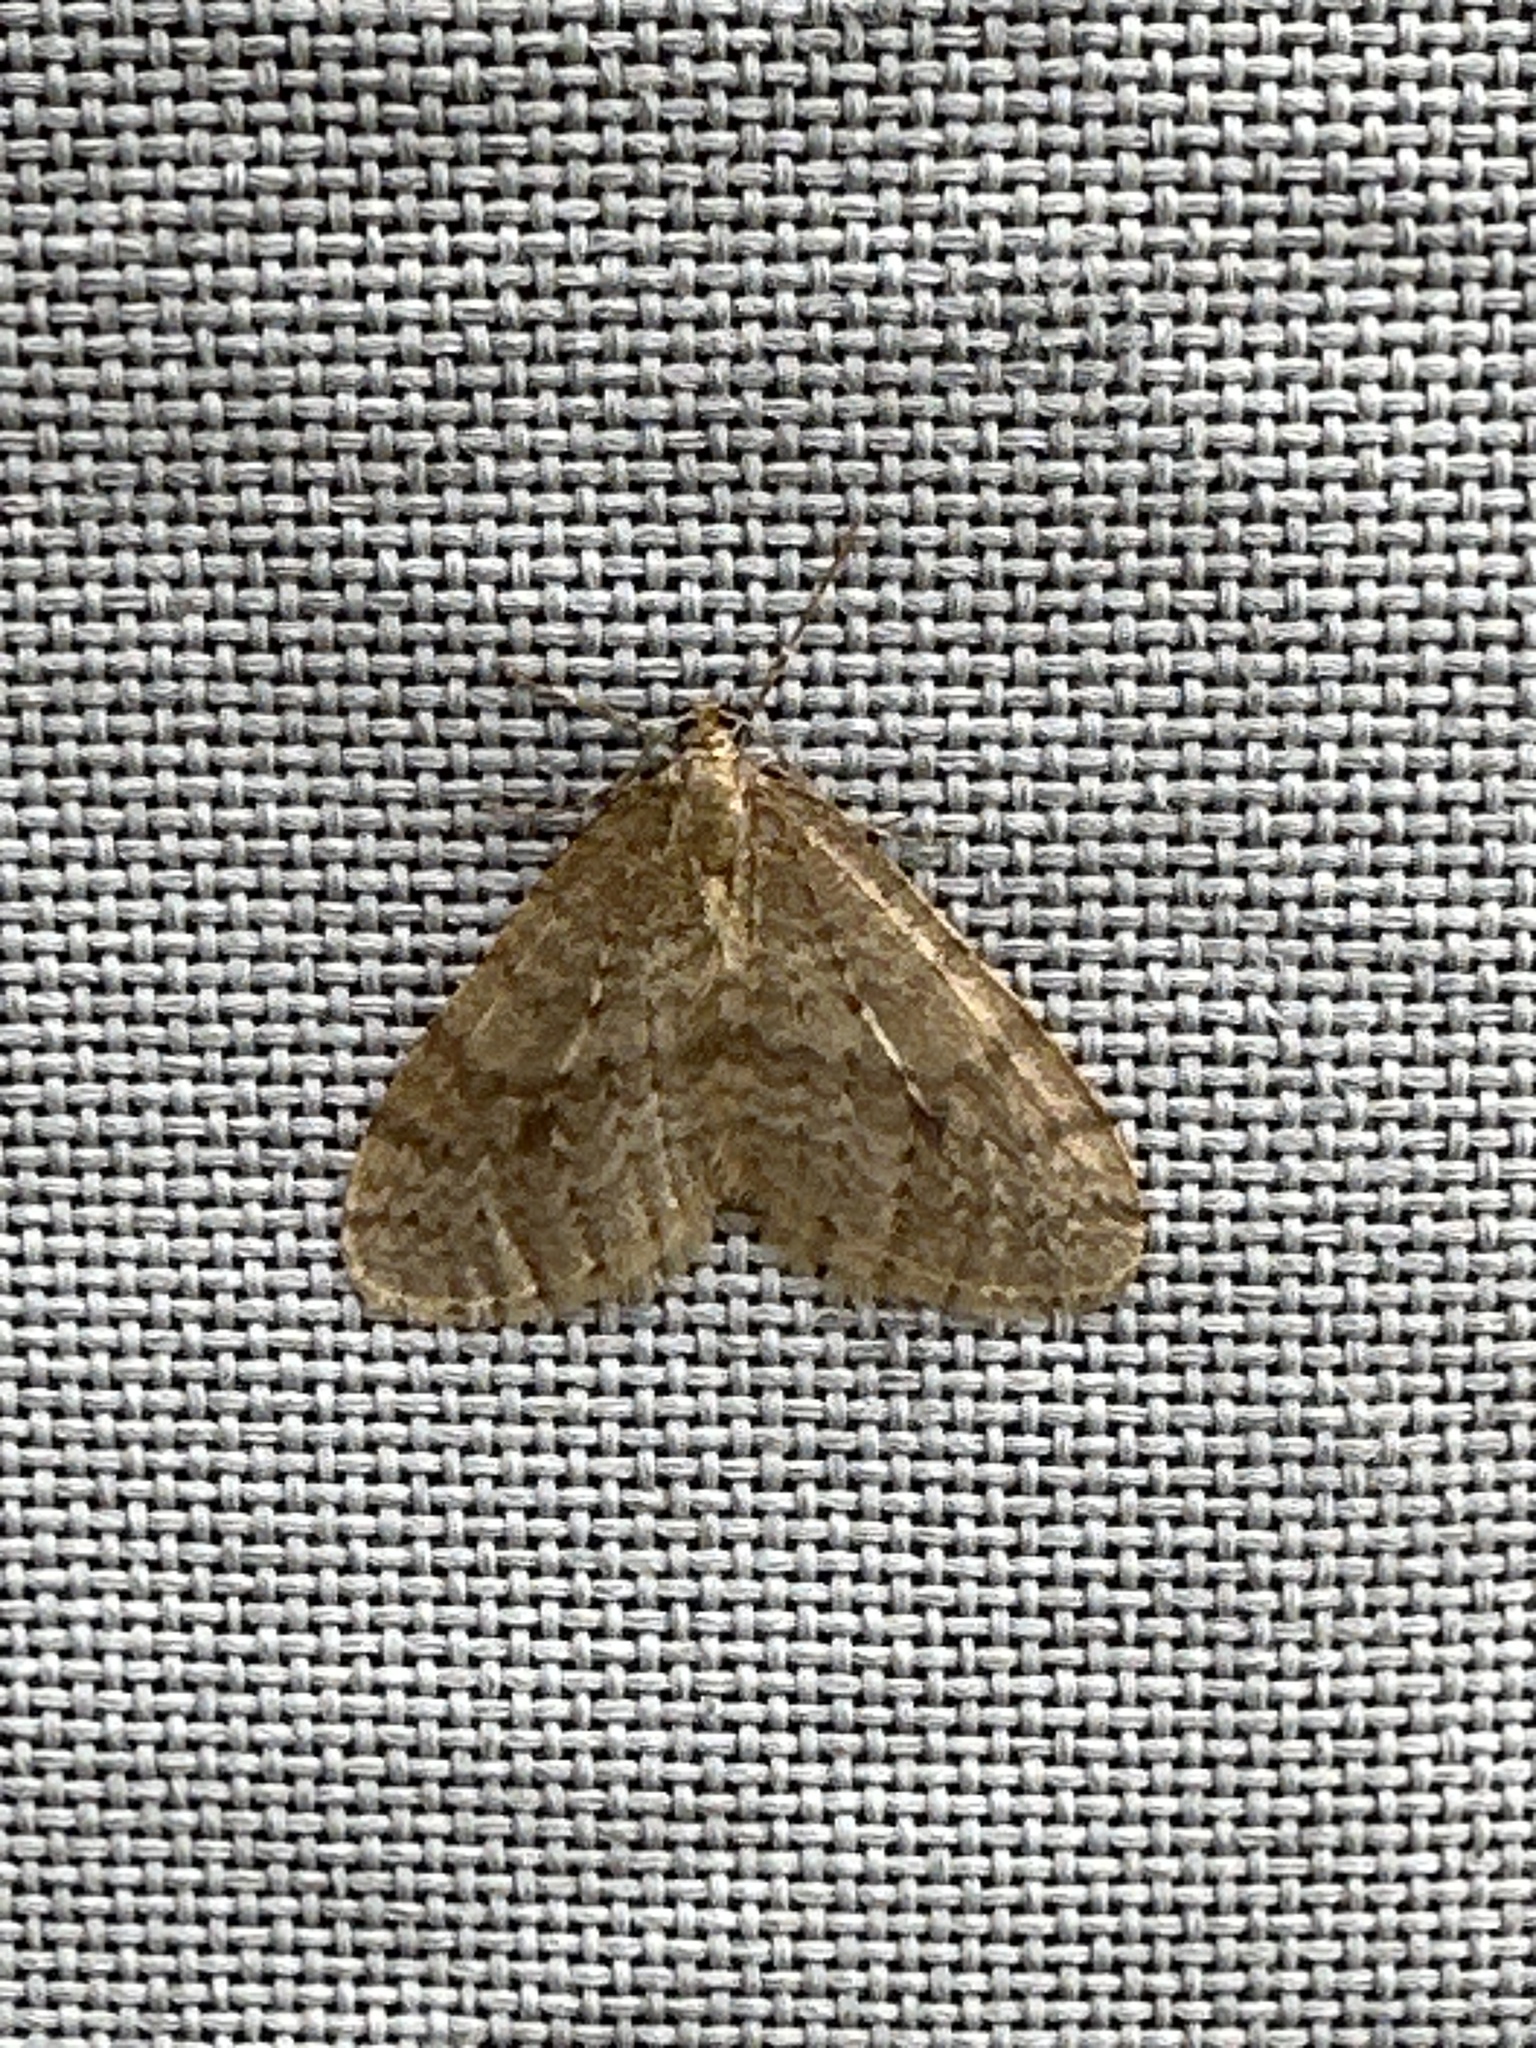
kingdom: Animalia
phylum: Arthropoda
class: Insecta
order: Lepidoptera
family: Geometridae
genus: Operophtera
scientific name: Operophtera bruceata
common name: Bruce spanworm
